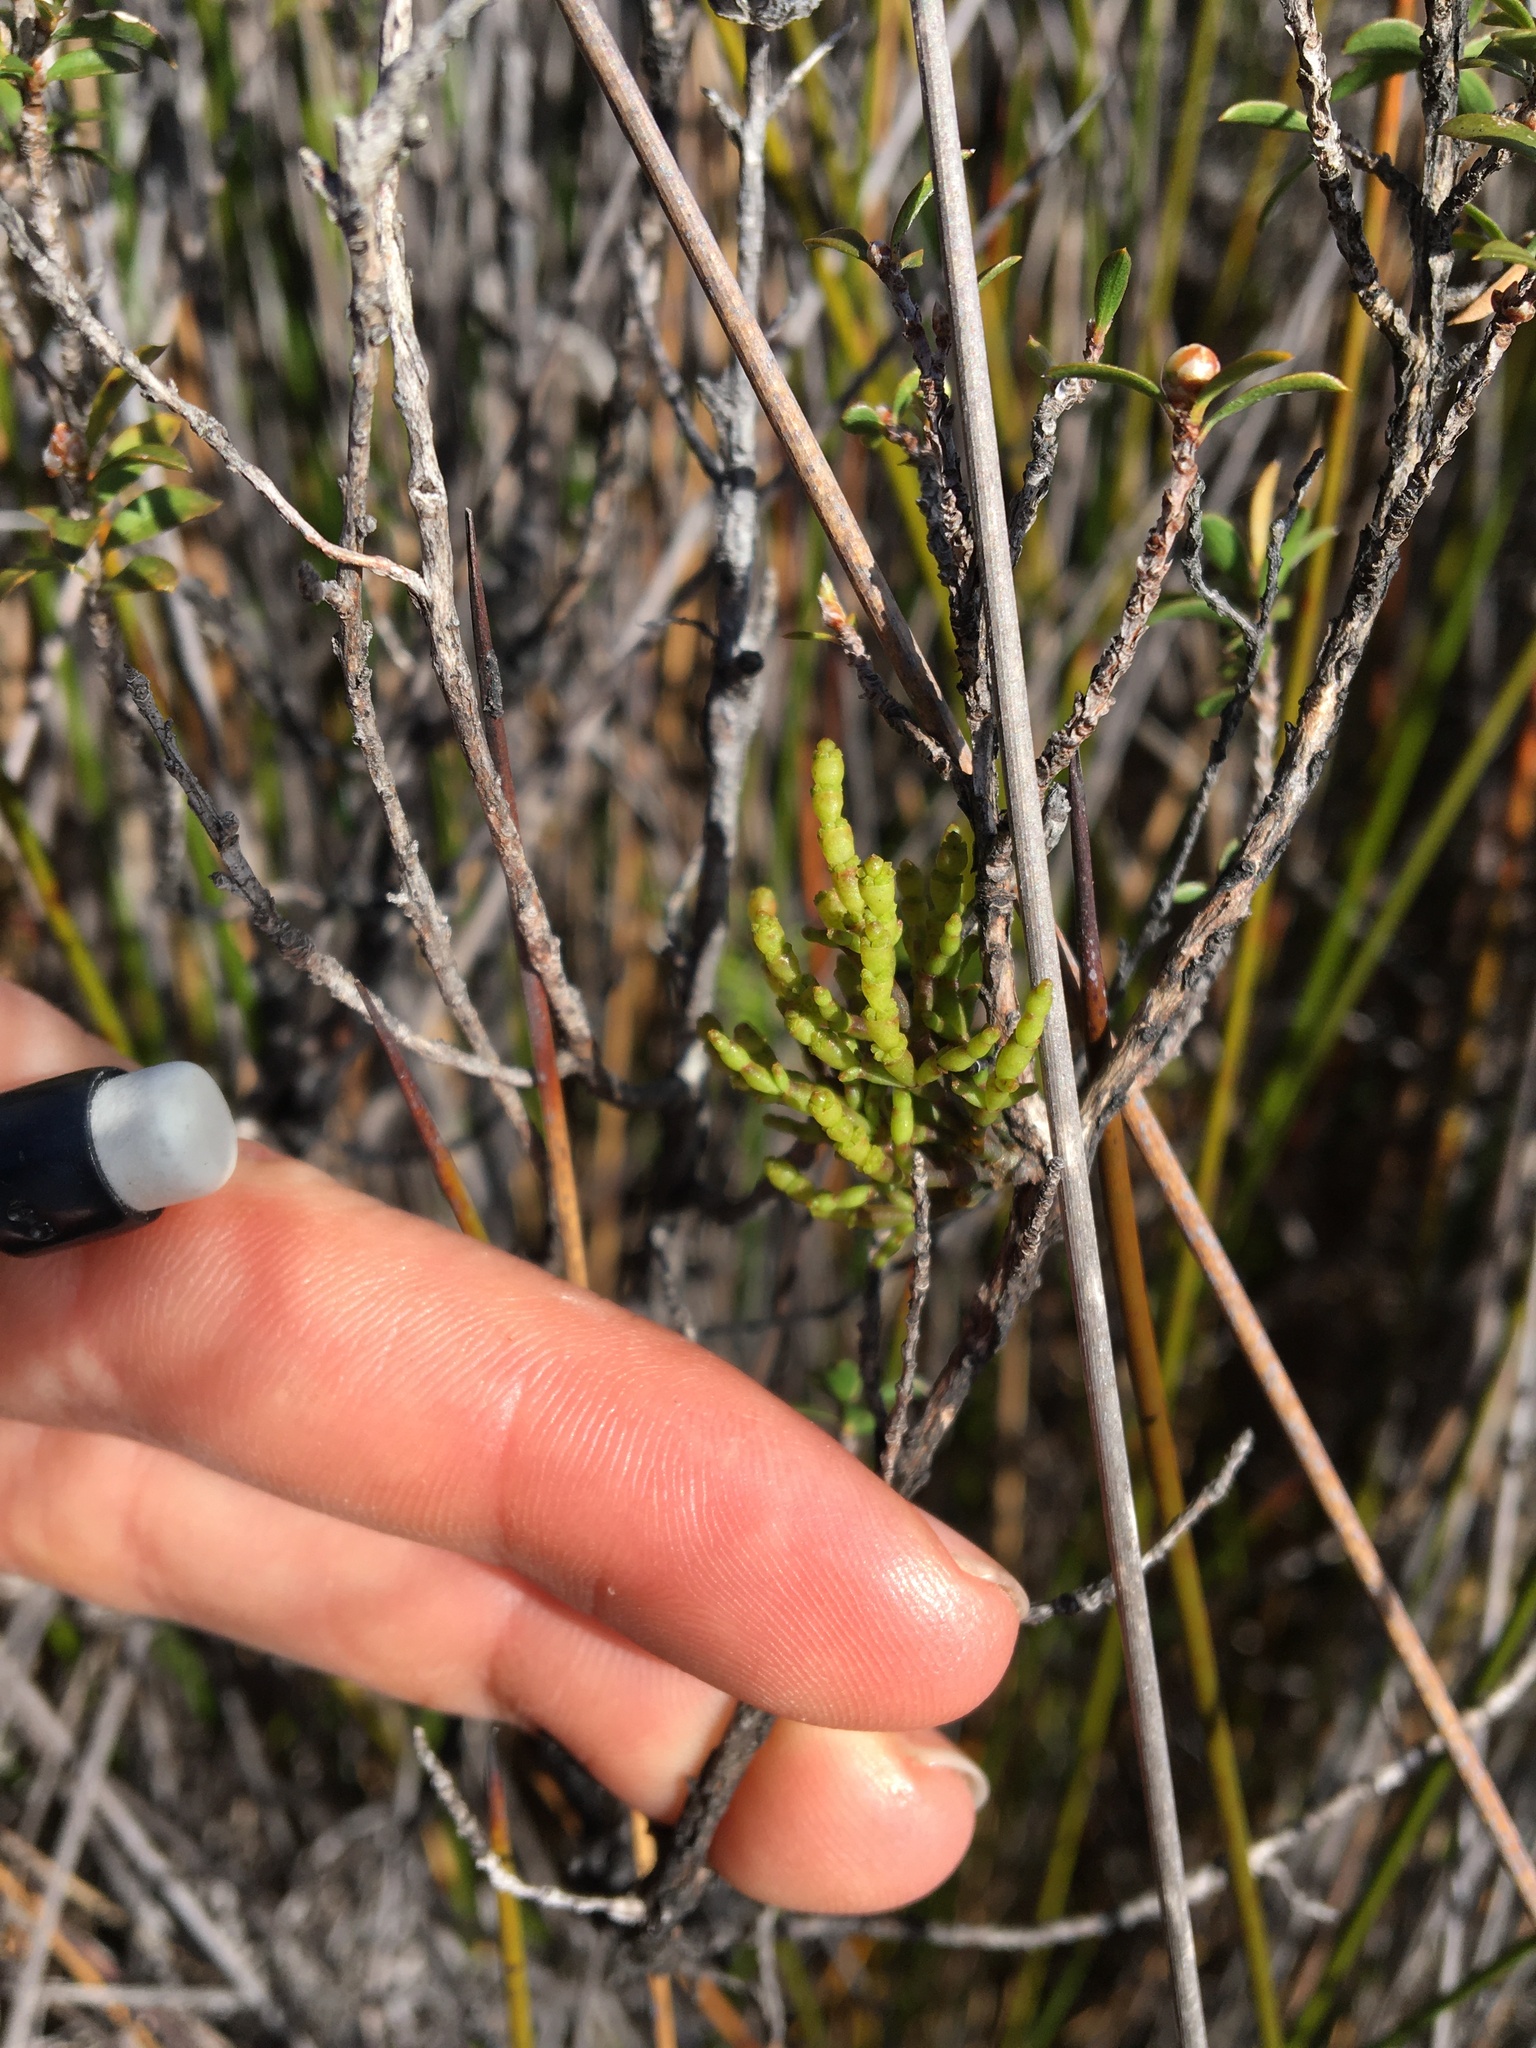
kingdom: Plantae
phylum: Tracheophyta
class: Magnoliopsida
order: Santalales
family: Viscaceae
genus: Korthalsella
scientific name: Korthalsella salicornioides
